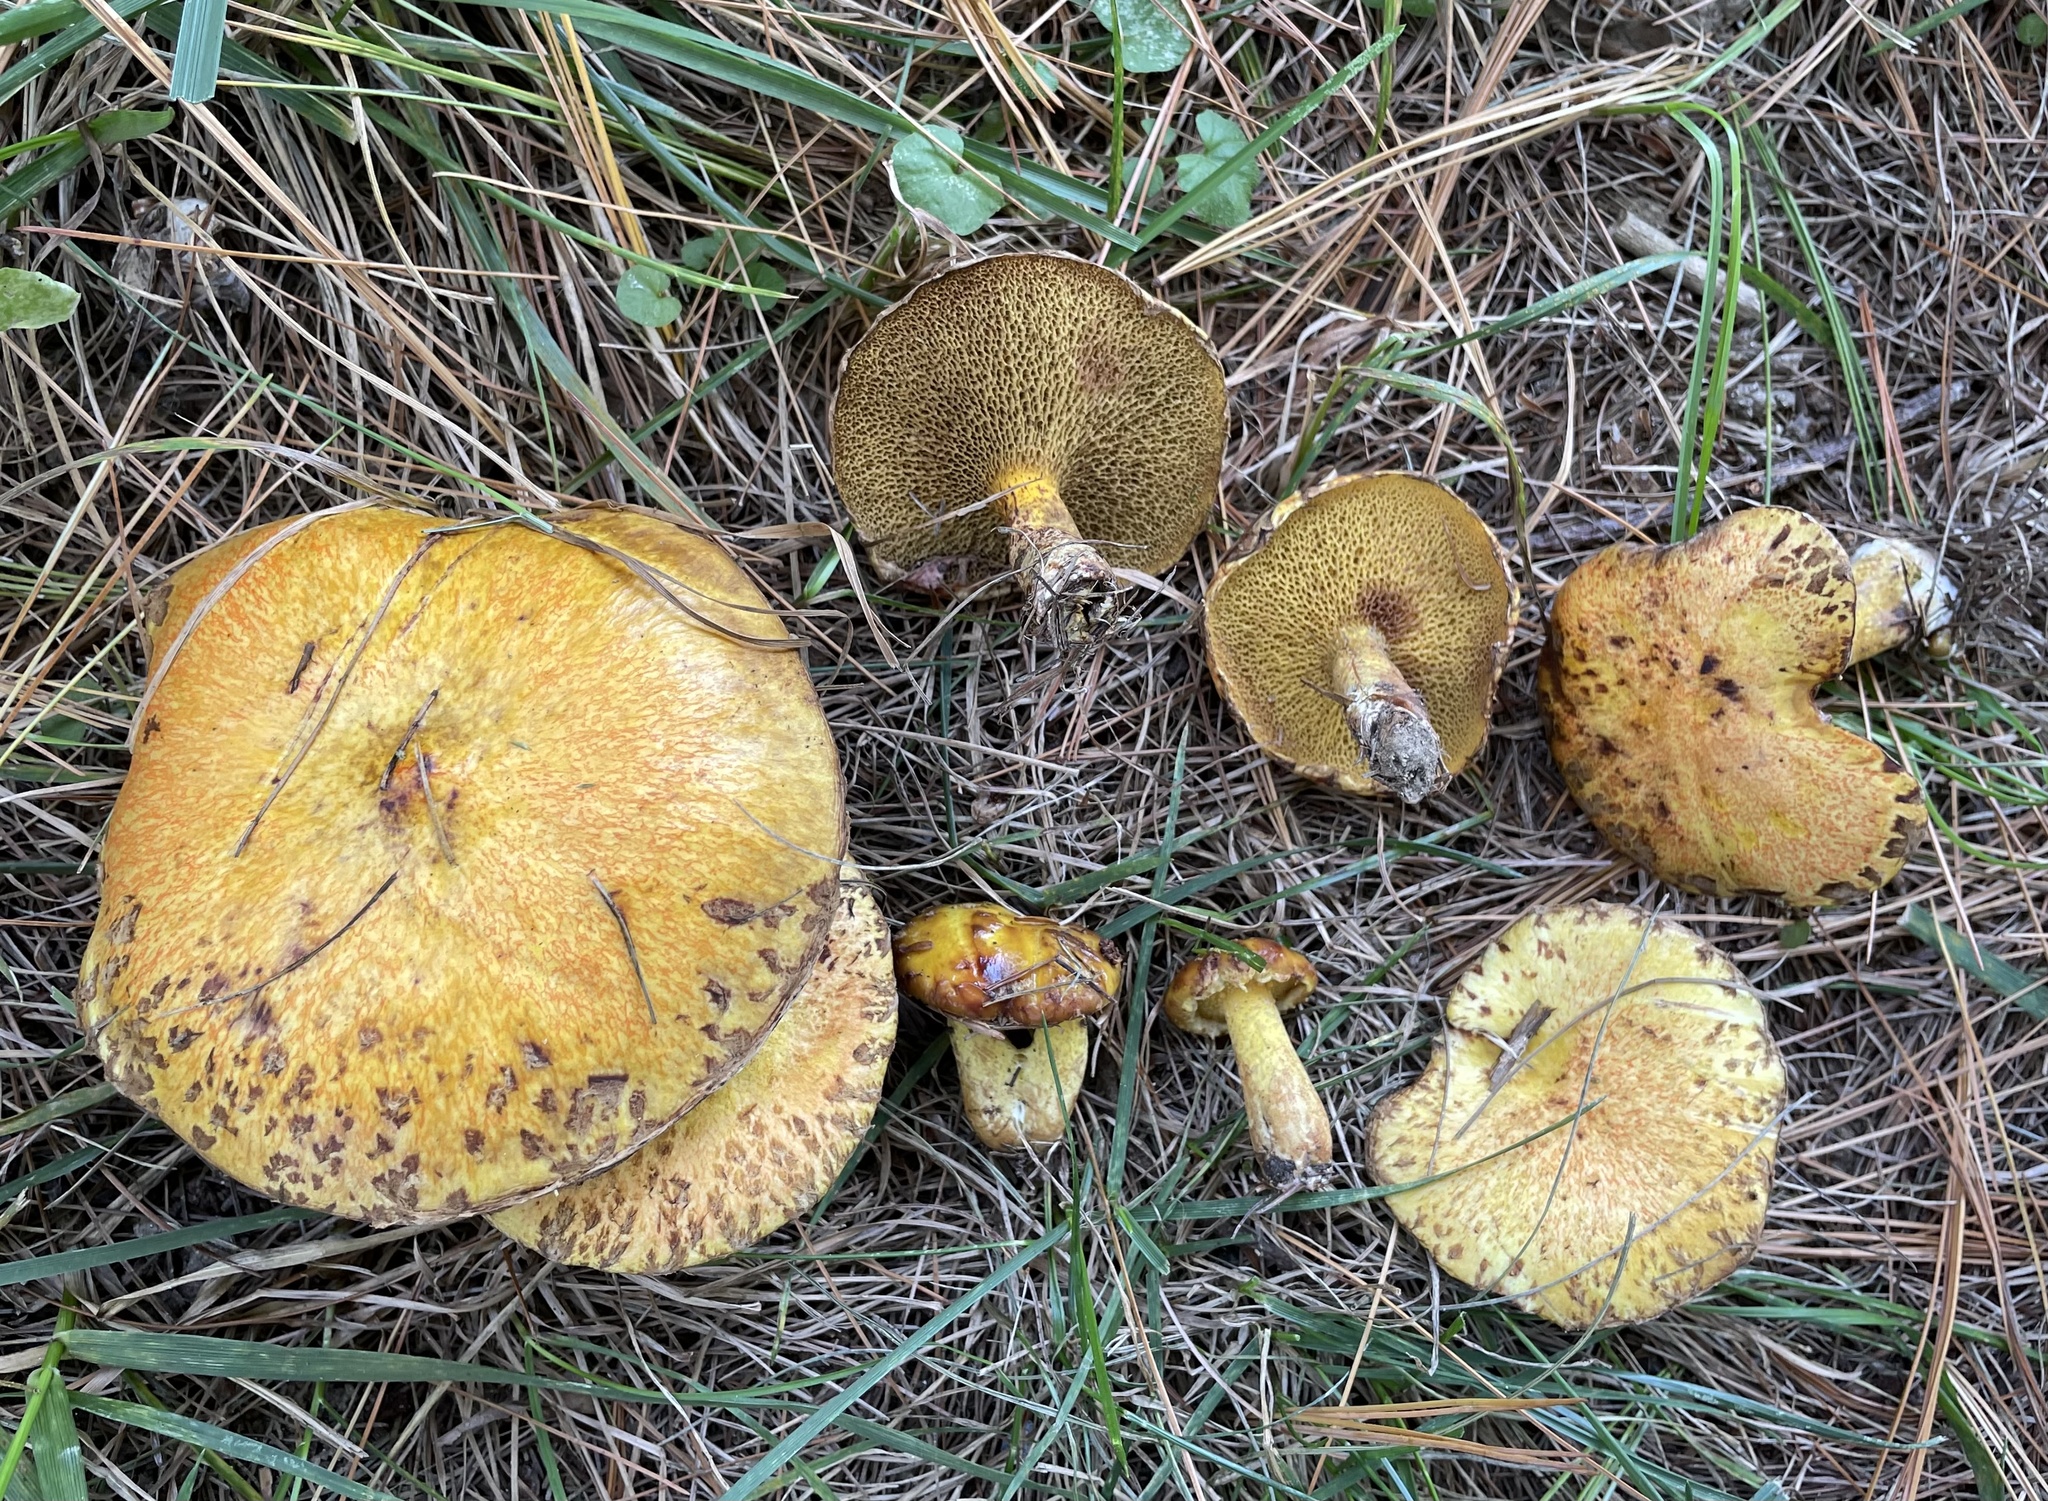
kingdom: Fungi
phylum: Basidiomycota
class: Agaricomycetes
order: Boletales
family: Suillaceae
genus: Suillus
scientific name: Suillus americanus
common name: Chicken fat mushroom
